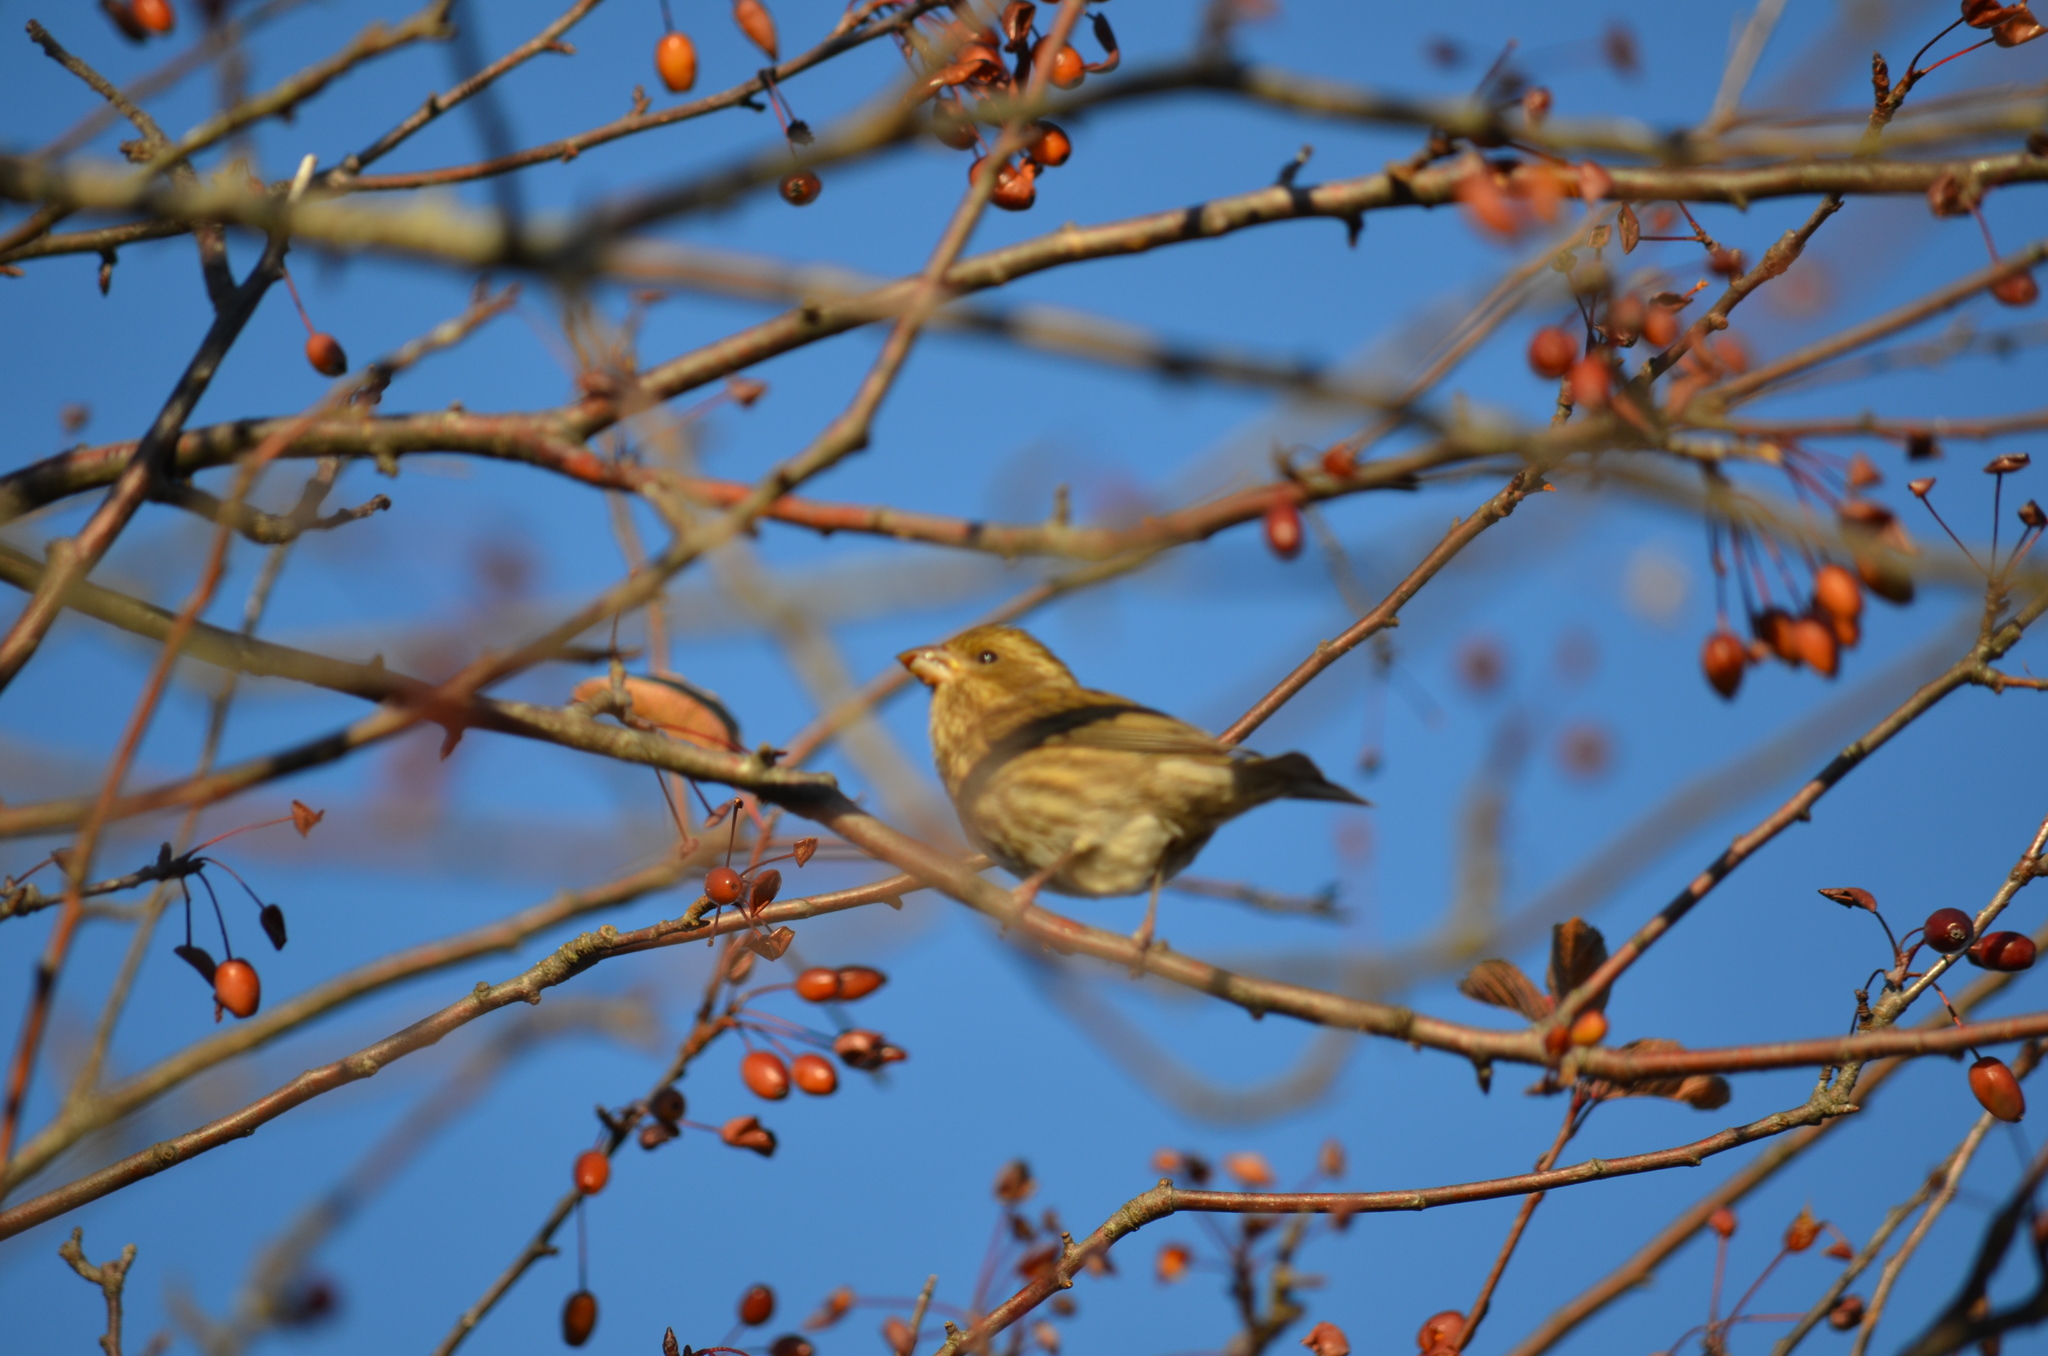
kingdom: Animalia
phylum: Chordata
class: Aves
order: Passeriformes
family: Fringillidae
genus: Haemorhous
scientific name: Haemorhous purpureus
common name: Purple finch
